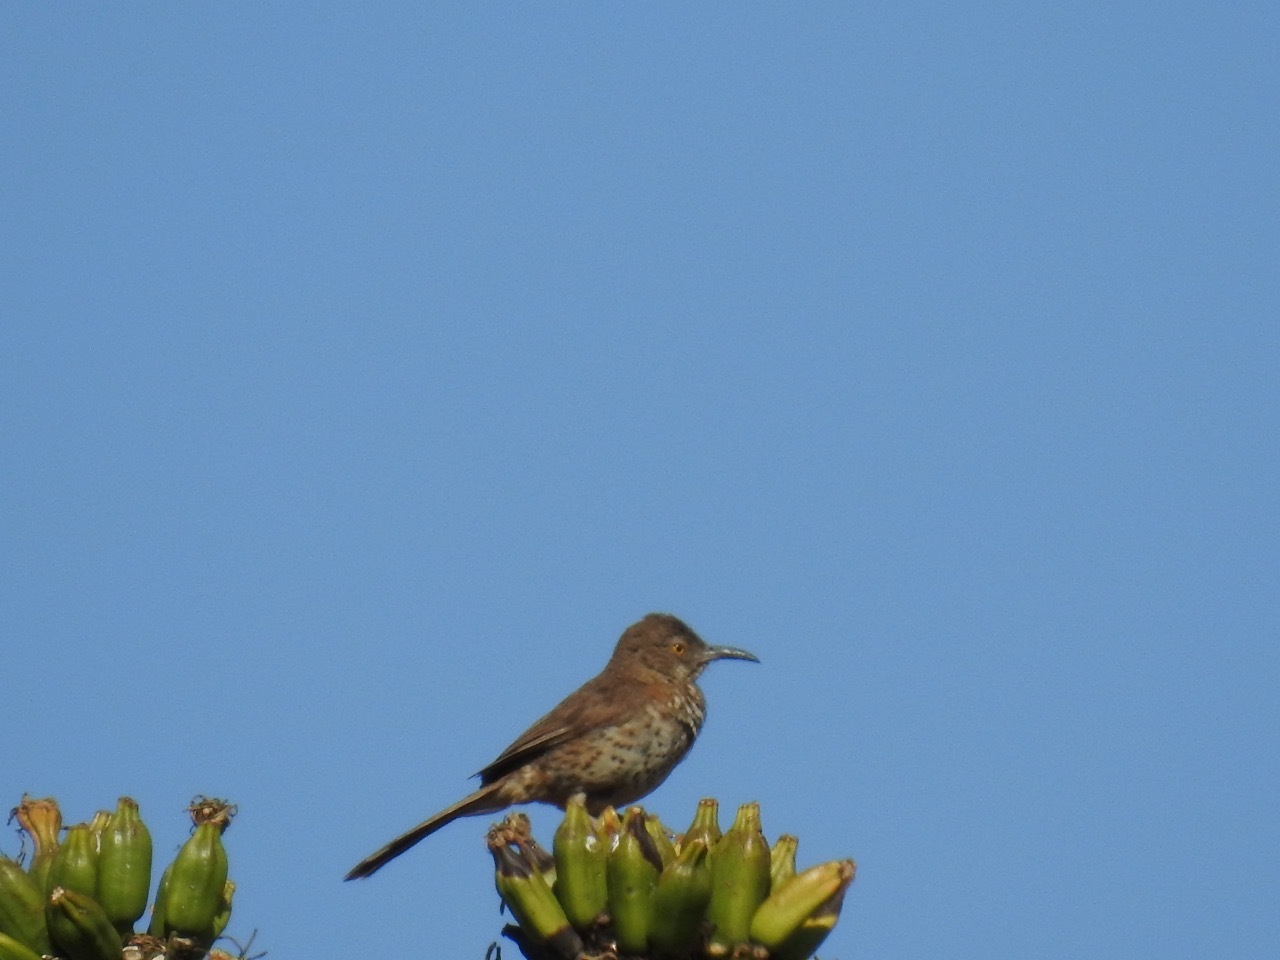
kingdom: Animalia
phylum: Chordata
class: Aves
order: Passeriformes
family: Mimidae
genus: Toxostoma
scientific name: Toxostoma cinereum
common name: Gray thrasher
